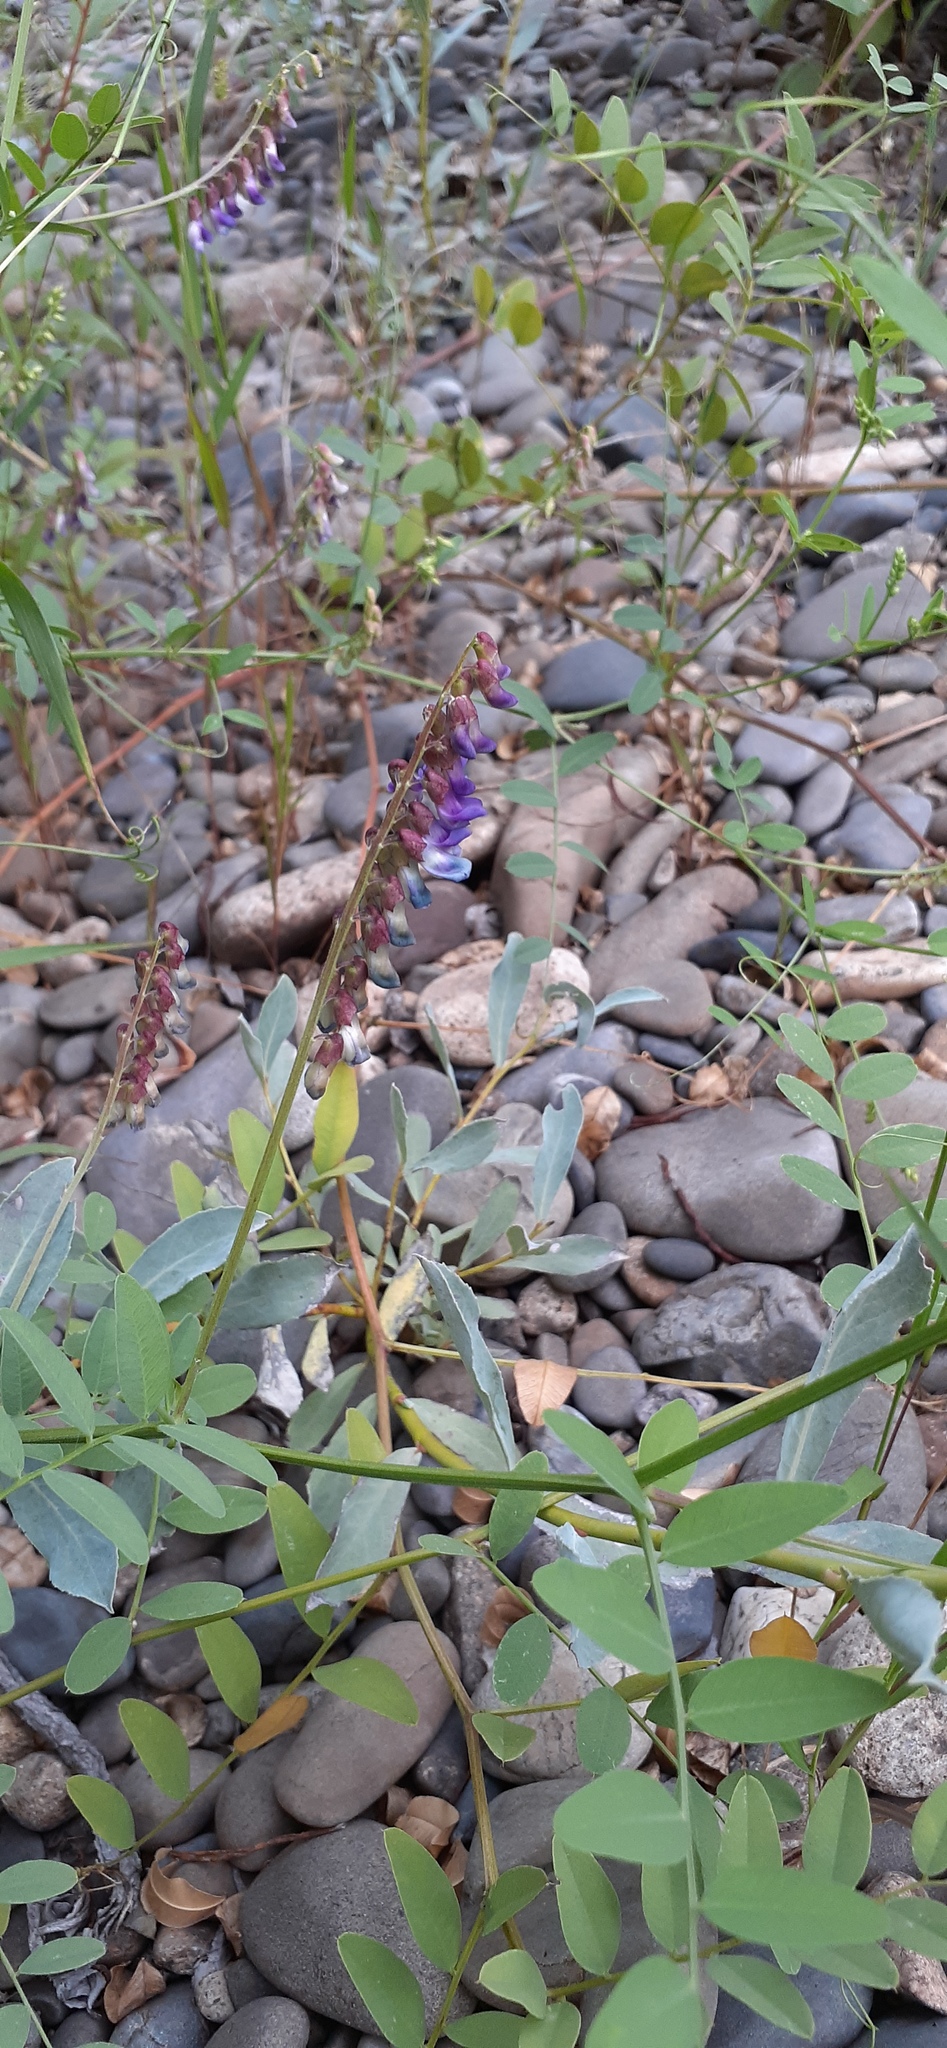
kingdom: Plantae
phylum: Tracheophyta
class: Magnoliopsida
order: Fabales
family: Fabaceae
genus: Vicia
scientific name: Vicia amurensis
